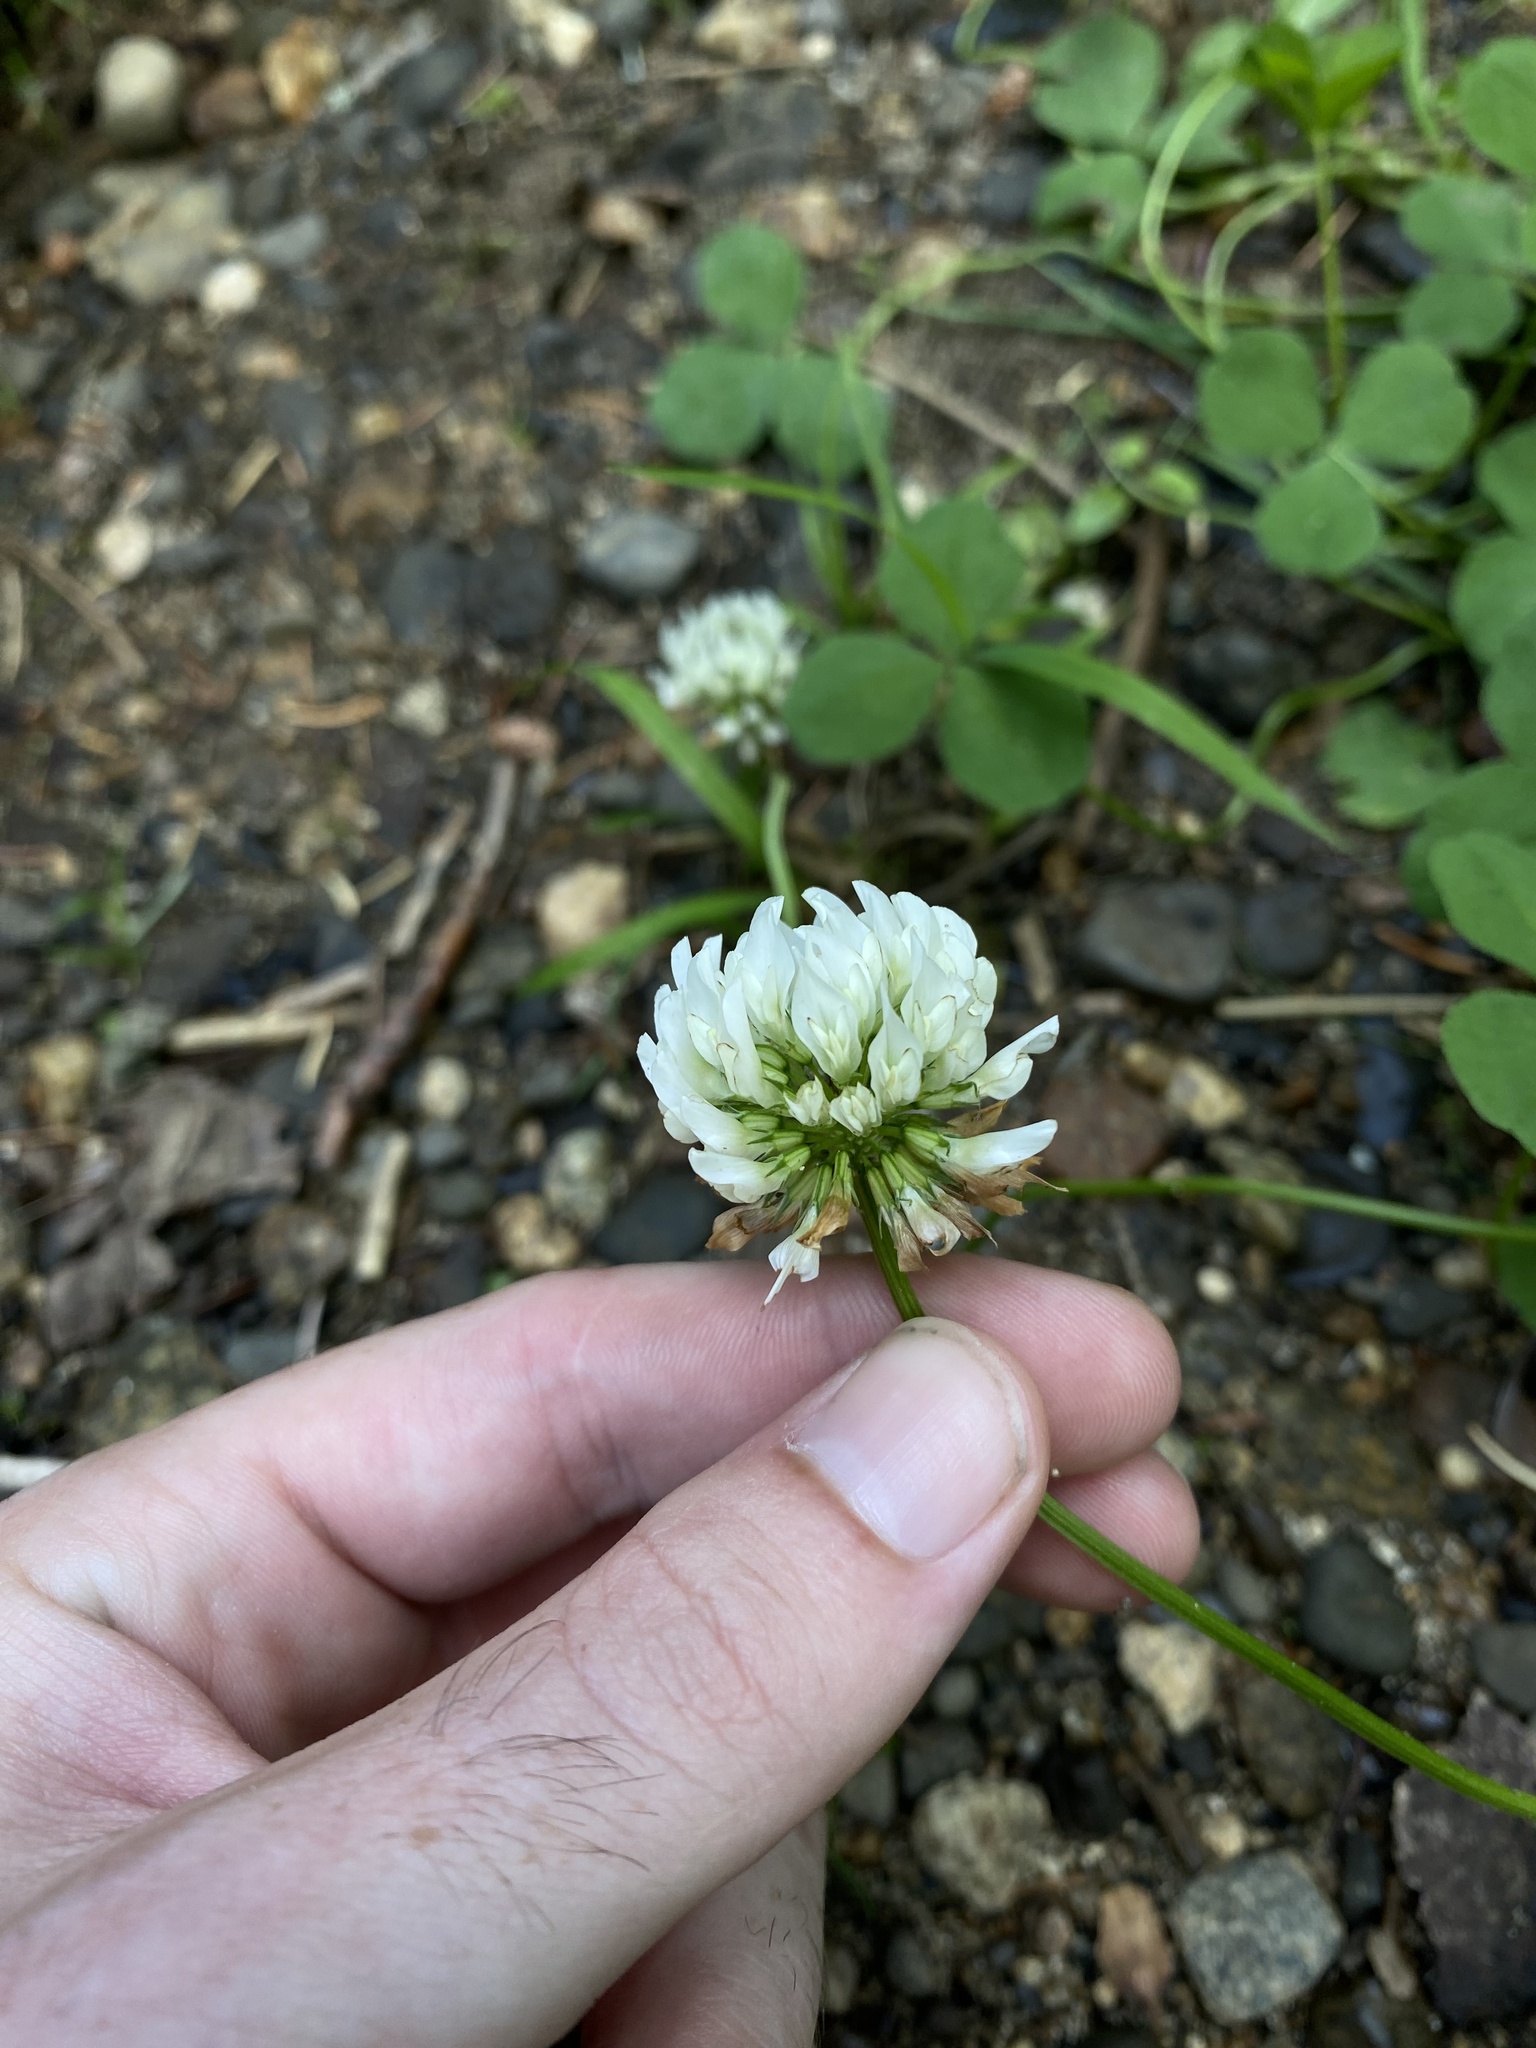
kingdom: Plantae
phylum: Tracheophyta
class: Magnoliopsida
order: Fabales
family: Fabaceae
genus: Trifolium
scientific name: Trifolium repens
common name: White clover
